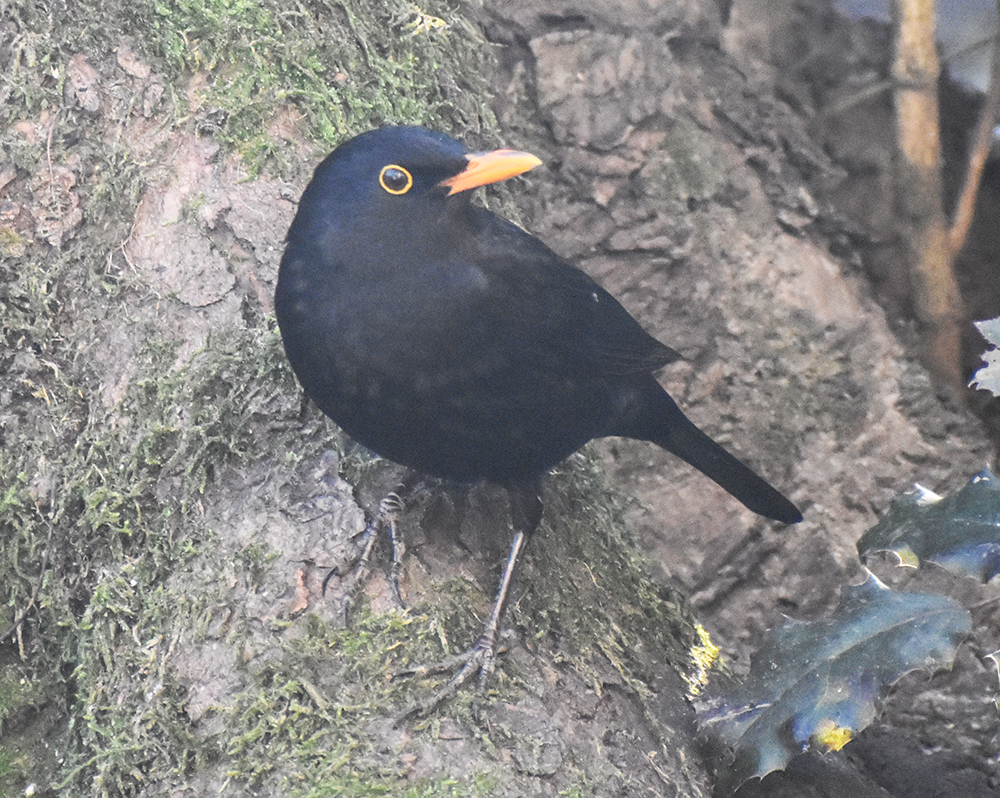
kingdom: Animalia
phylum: Chordata
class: Aves
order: Passeriformes
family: Turdidae
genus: Turdus
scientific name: Turdus merula
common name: Common blackbird
